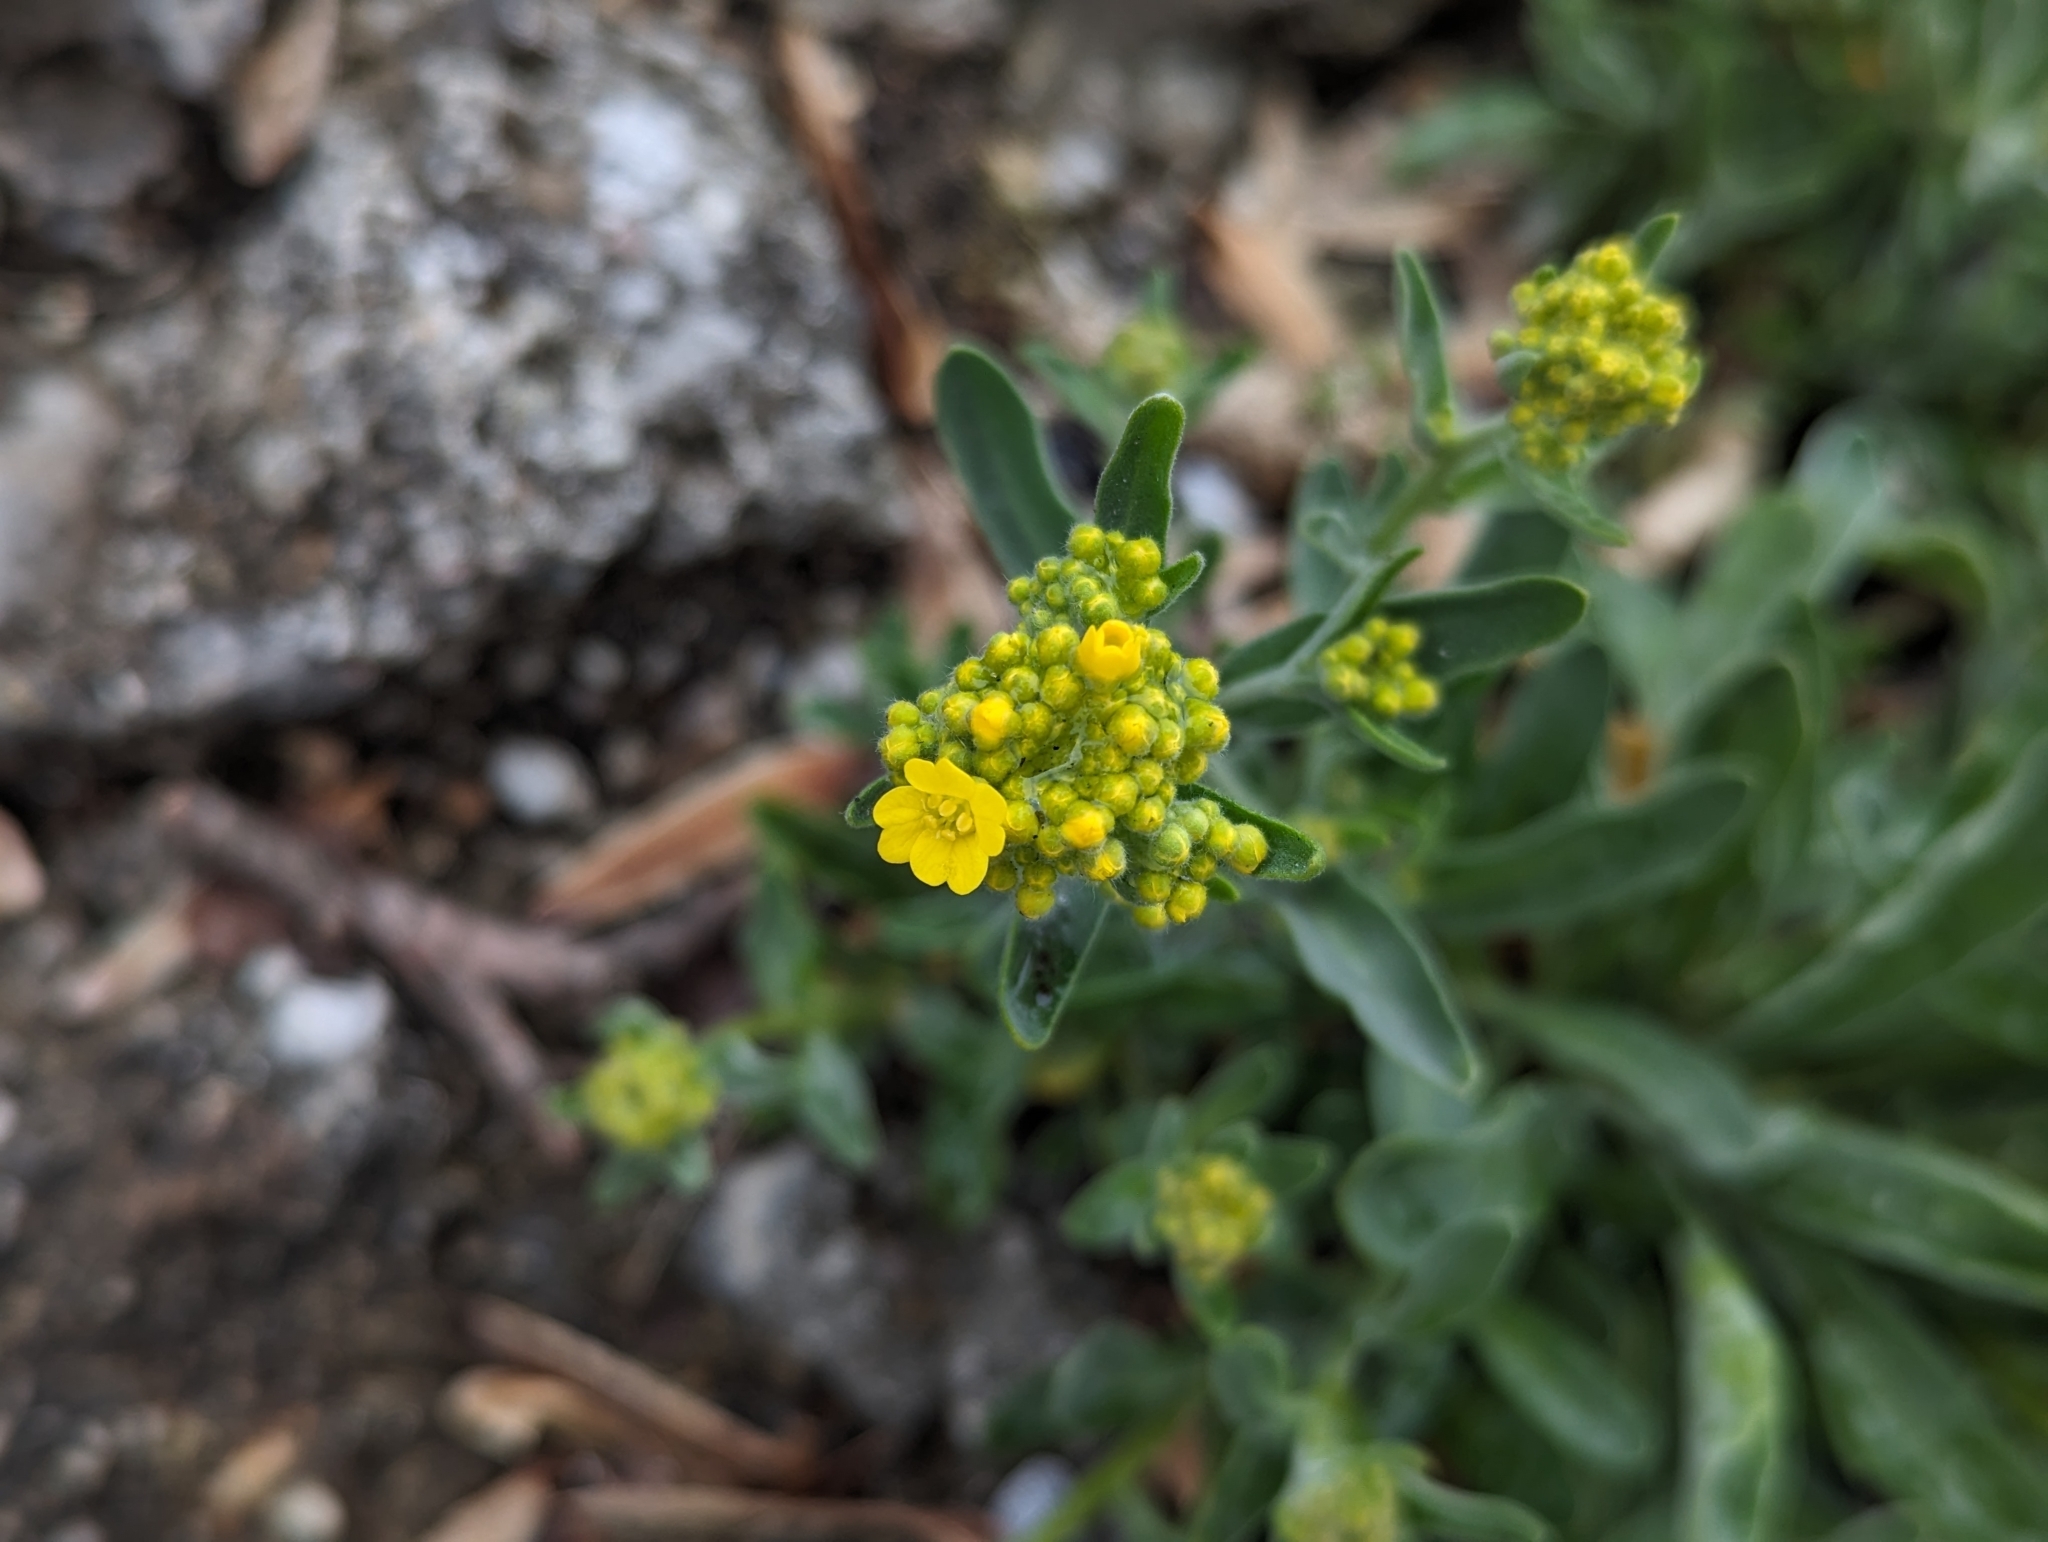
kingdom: Plantae
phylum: Tracheophyta
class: Magnoliopsida
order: Brassicales
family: Brassicaceae
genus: Aurinia
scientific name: Aurinia saxatilis
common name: Golden-tuft alyssum
